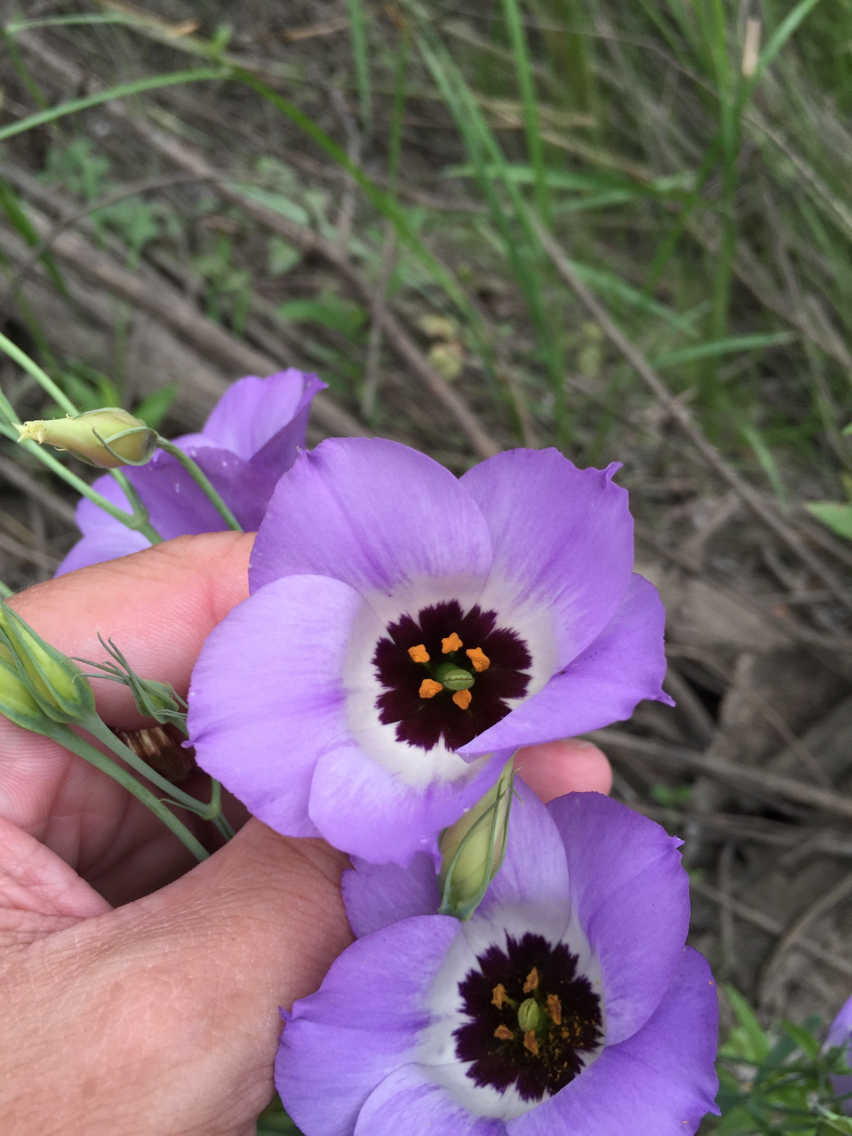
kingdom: Plantae
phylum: Tracheophyta
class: Magnoliopsida
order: Gentianales
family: Gentianaceae
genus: Eustoma
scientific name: Eustoma russellianum
